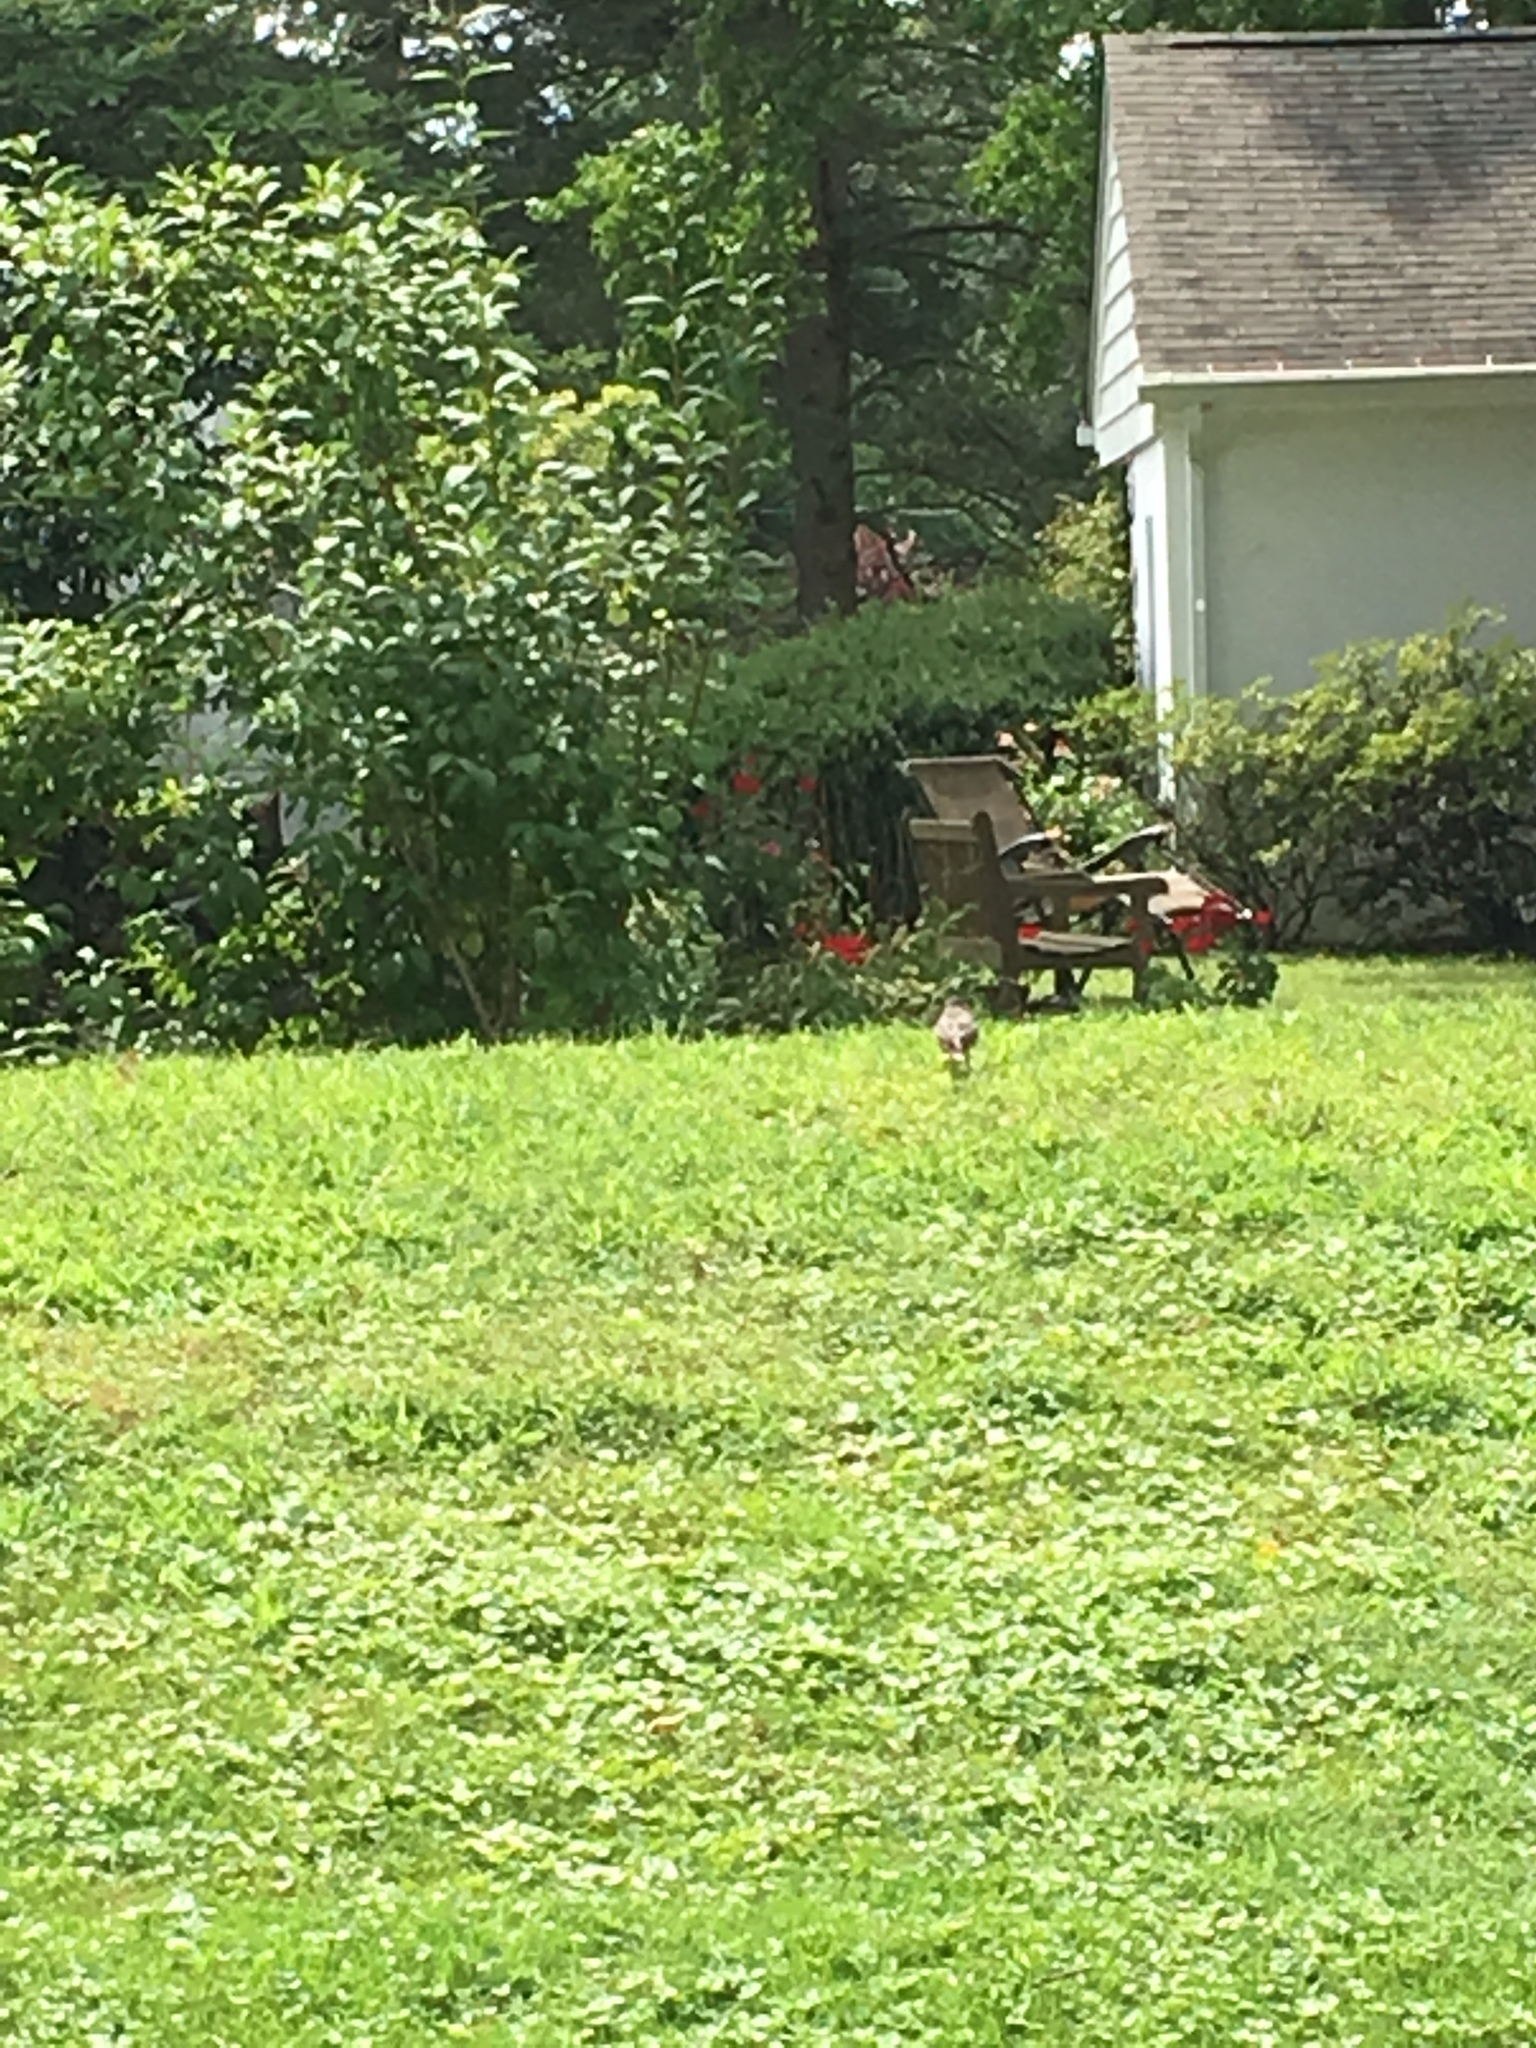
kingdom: Animalia
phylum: Chordata
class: Aves
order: Passeriformes
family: Turdidae
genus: Turdus
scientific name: Turdus migratorius
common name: American robin
